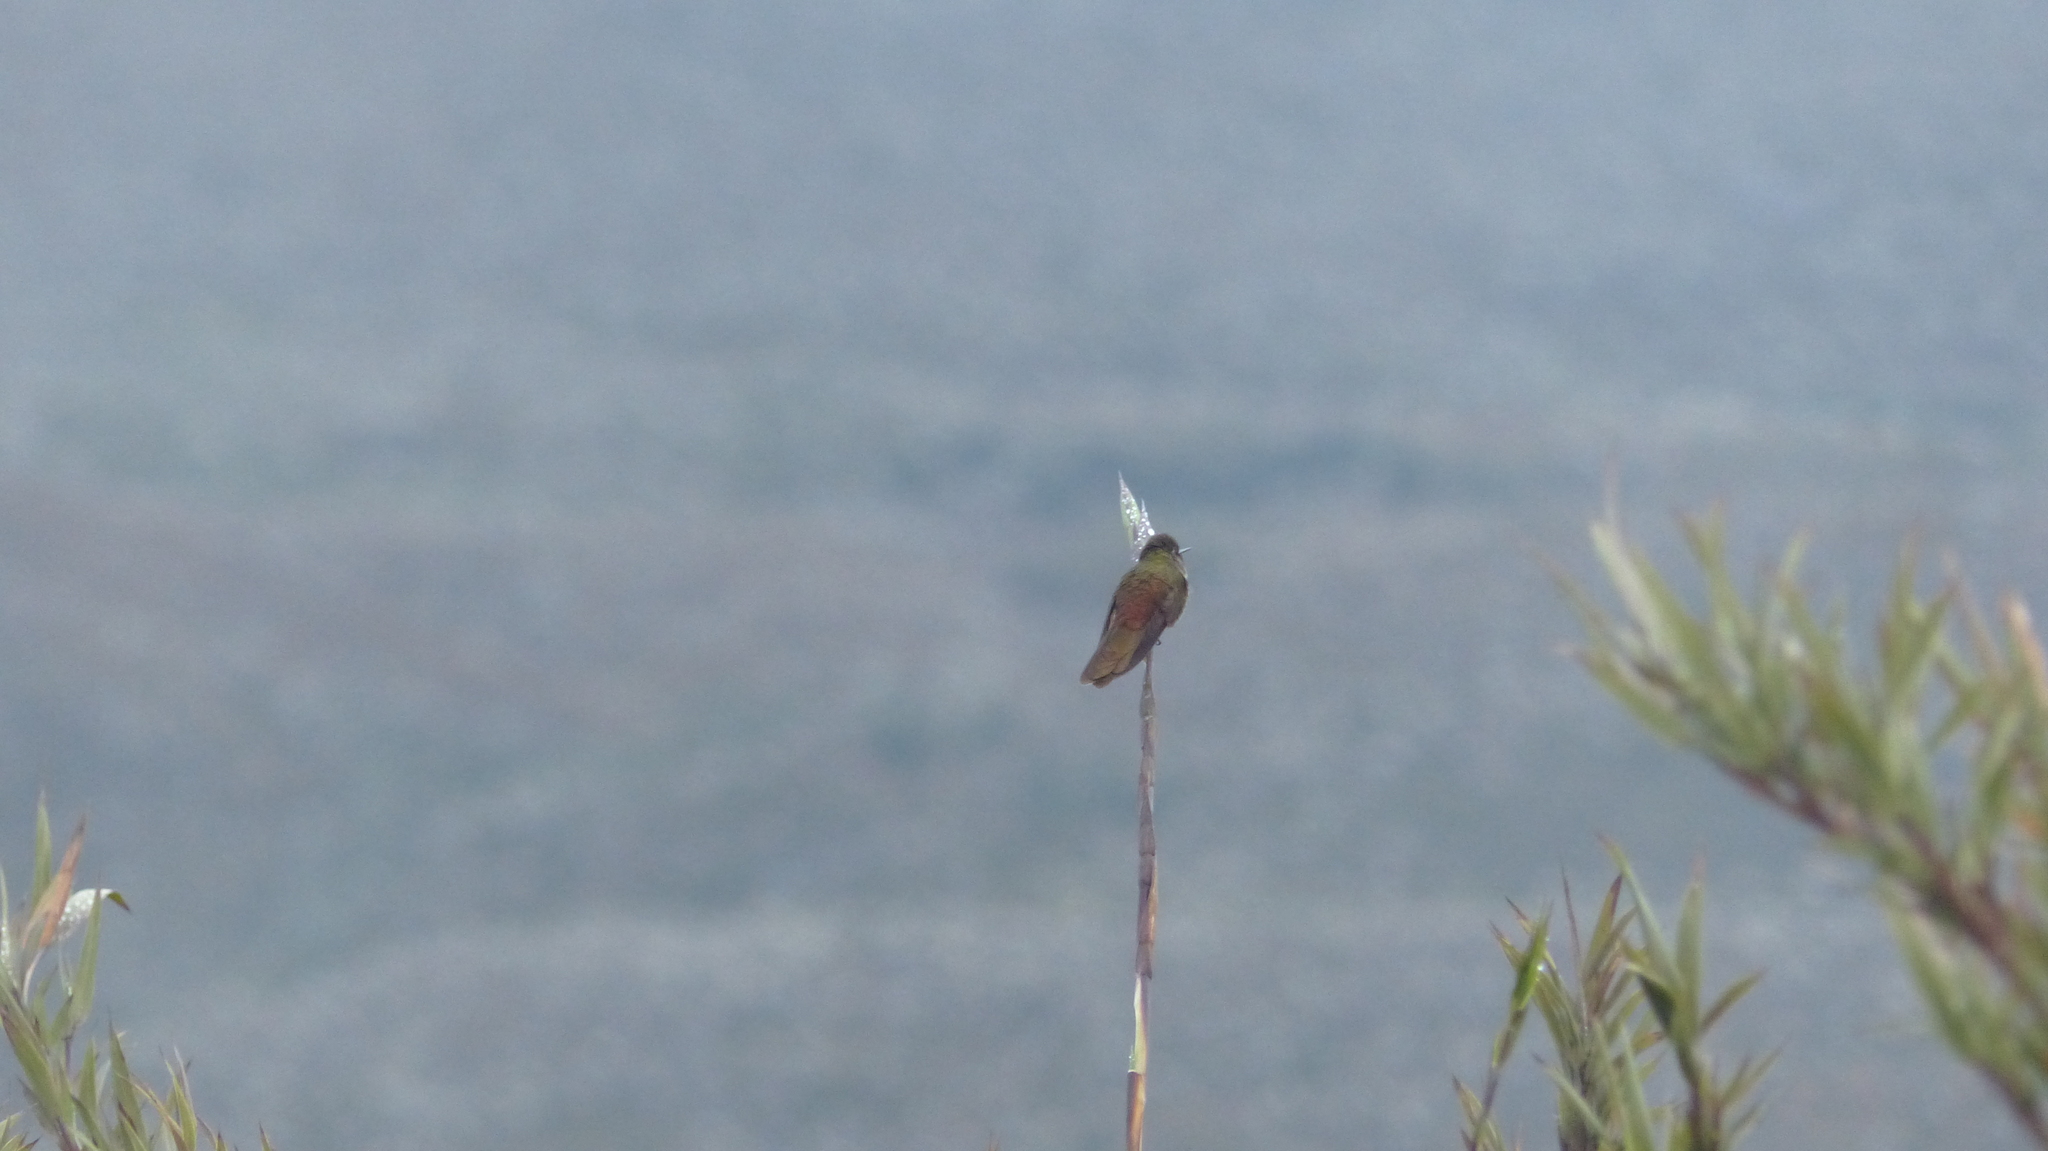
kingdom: Animalia
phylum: Chordata
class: Aves
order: Apodiformes
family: Trochilidae
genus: Chalcostigma
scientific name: Chalcostigma heteropogon
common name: Bronze-tailed thornbill
